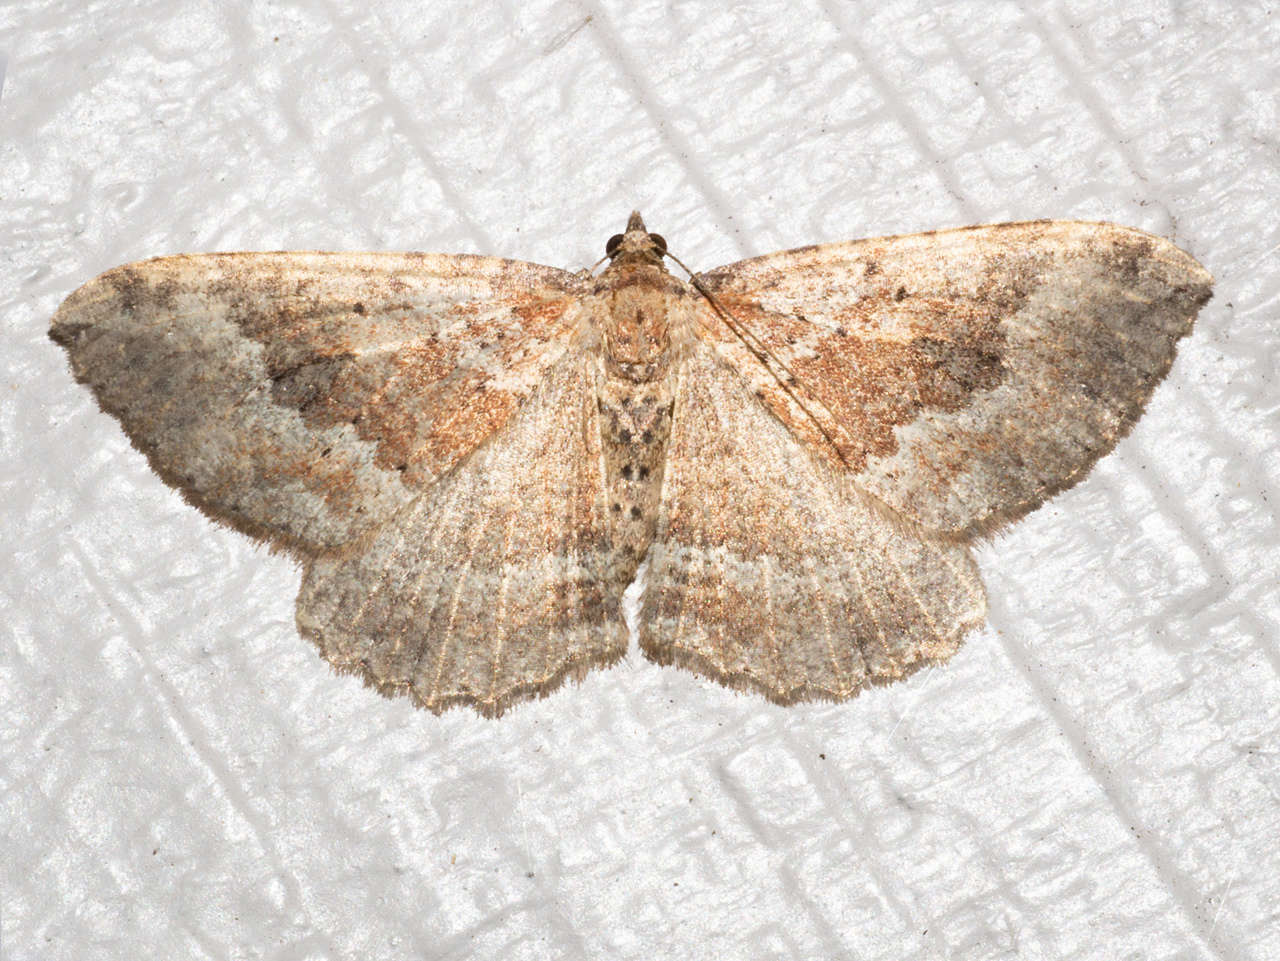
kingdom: Animalia
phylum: Arthropoda
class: Insecta
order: Lepidoptera
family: Geometridae
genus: Acodia
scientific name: Acodia pauper
